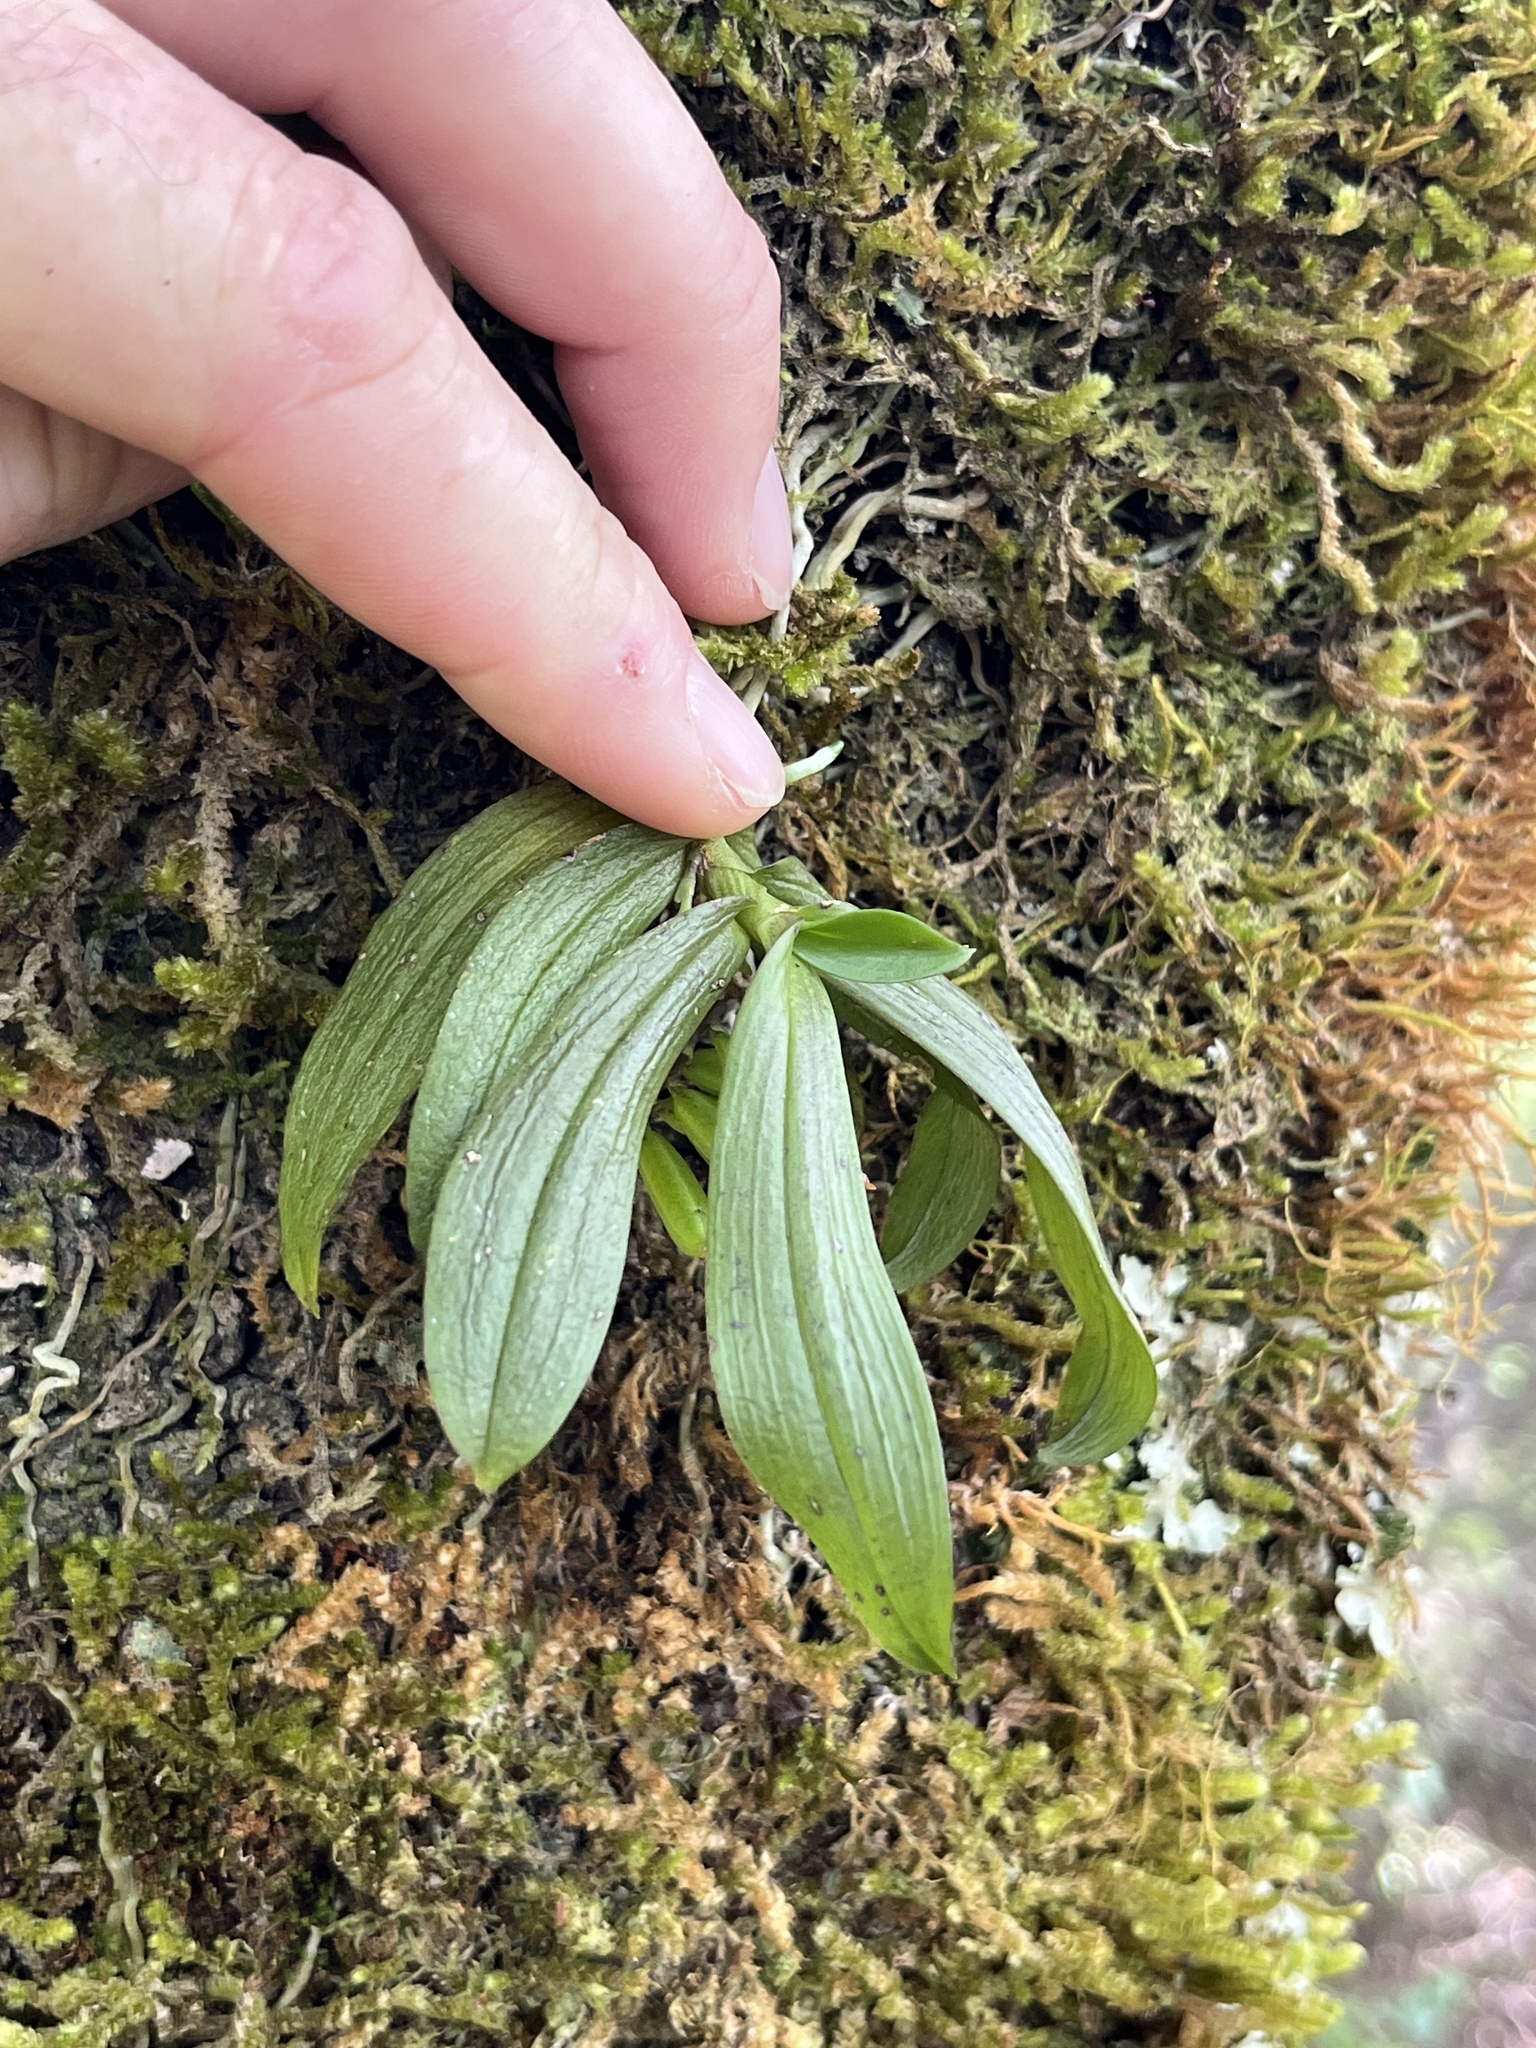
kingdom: Plantae
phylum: Tracheophyta
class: Liliopsida
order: Asparagales
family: Orchidaceae
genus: Drymoanthus
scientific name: Drymoanthus adversus
